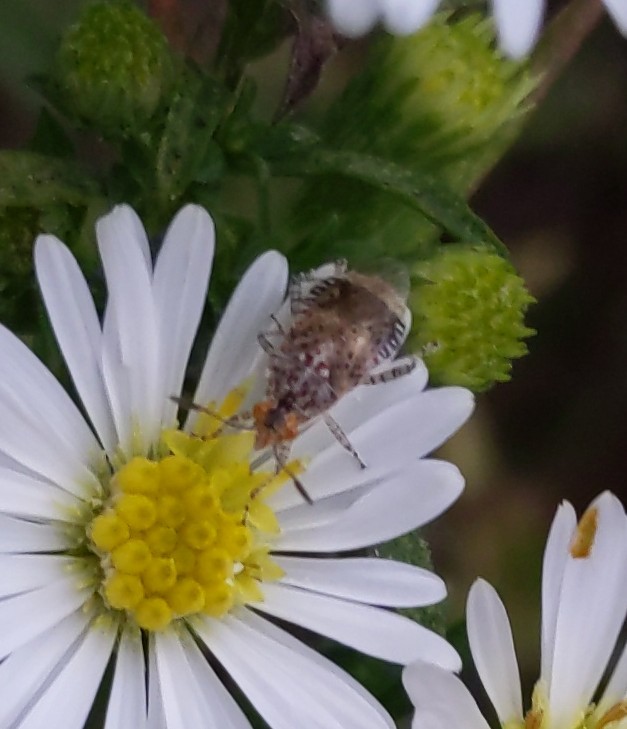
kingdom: Animalia
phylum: Arthropoda
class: Insecta
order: Hemiptera
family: Rhopalidae
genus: Niesthrea
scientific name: Niesthrea louisianica
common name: Scentless plant bug
